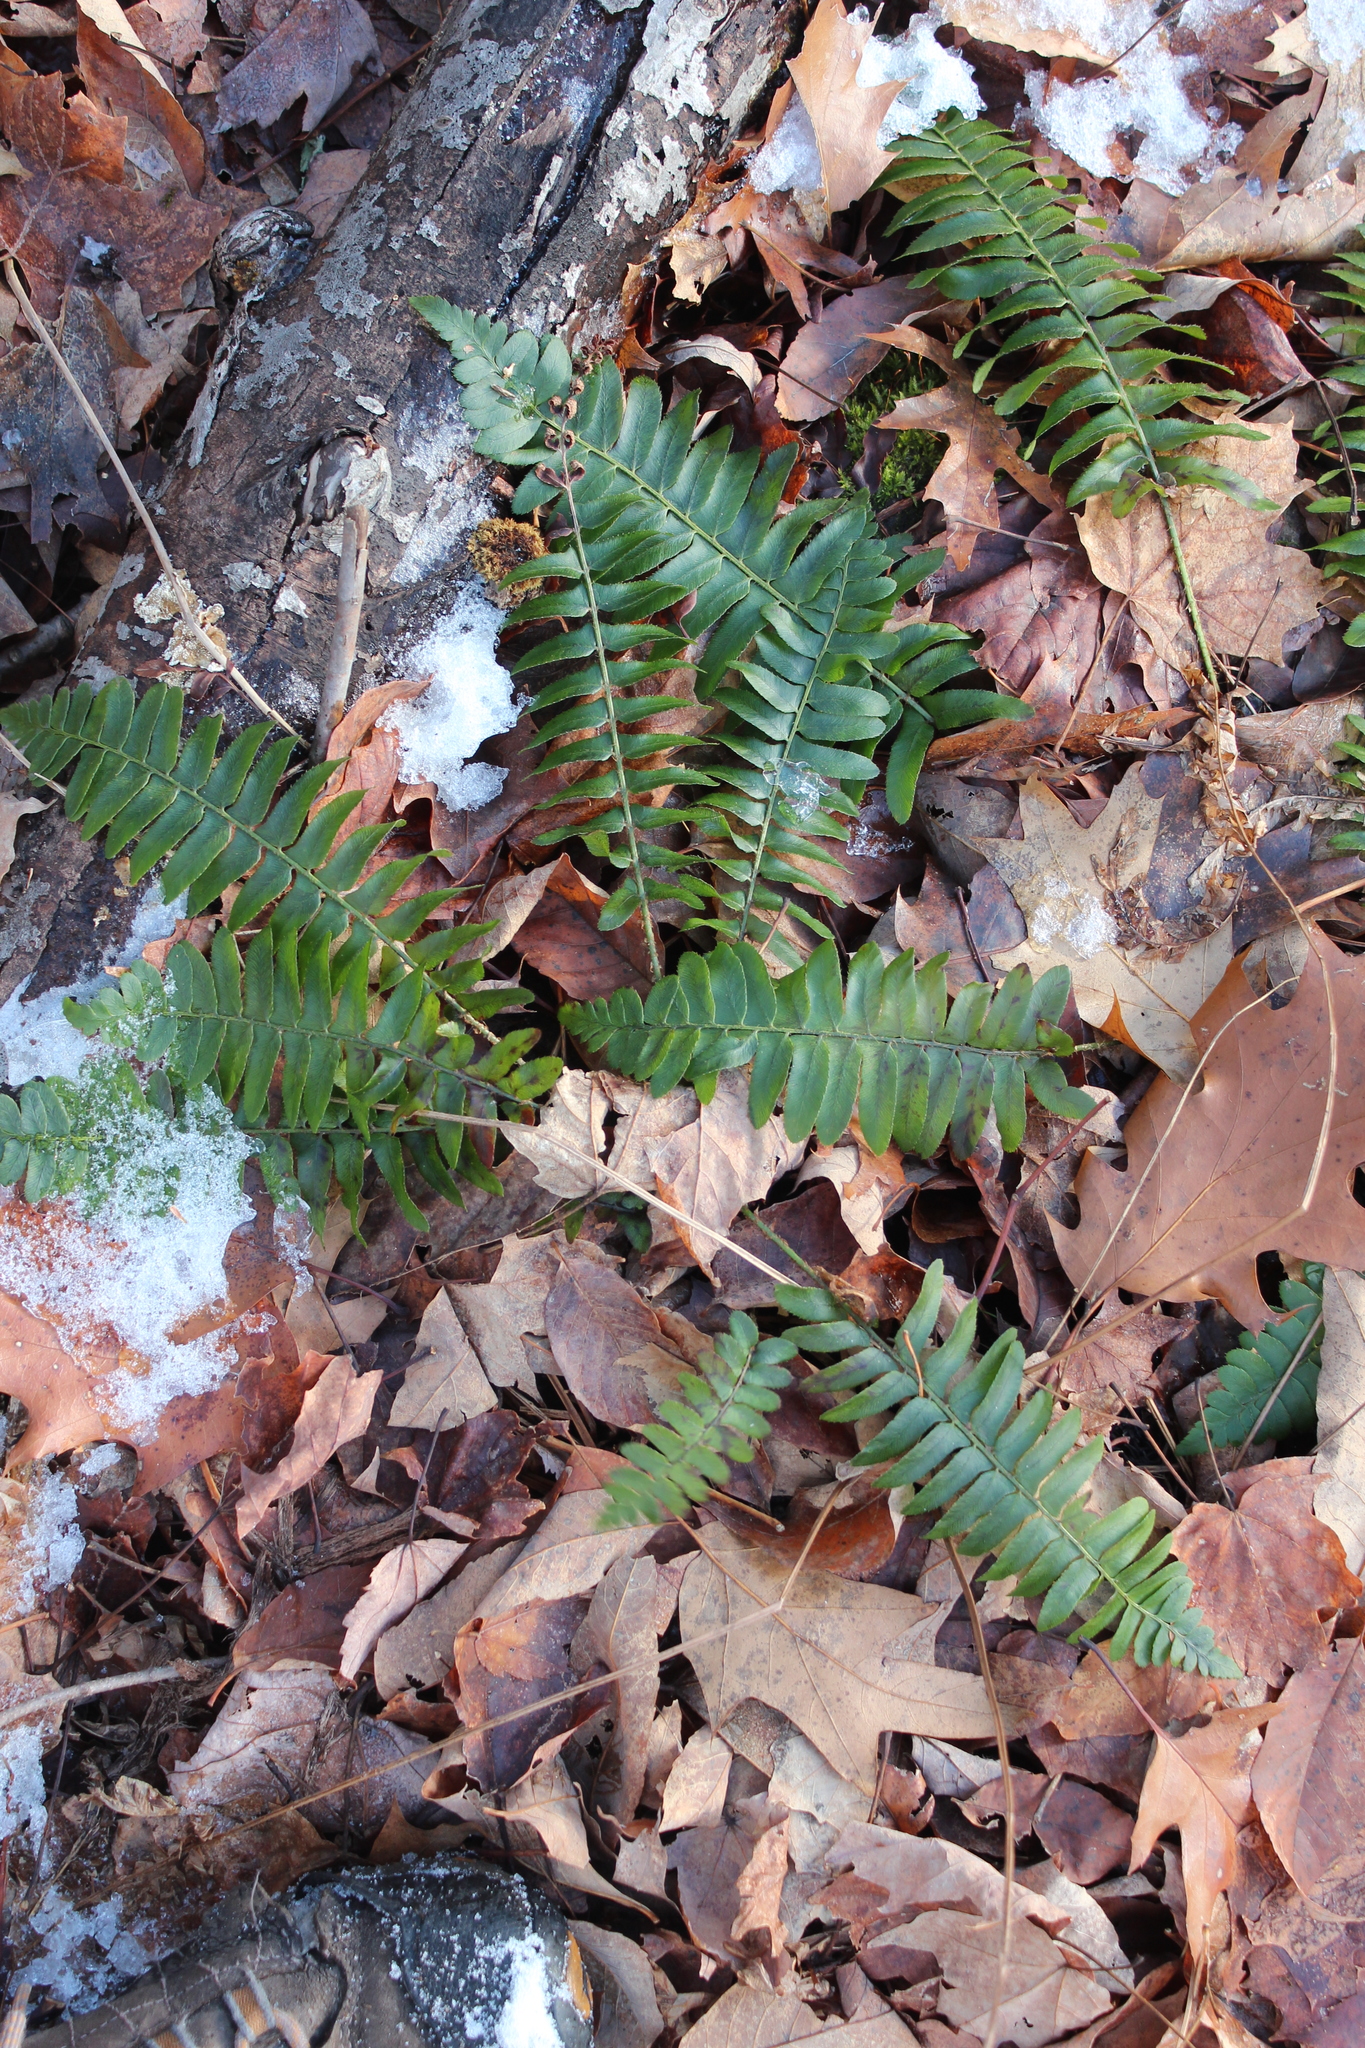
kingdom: Plantae
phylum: Tracheophyta
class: Polypodiopsida
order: Polypodiales
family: Dryopteridaceae
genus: Polystichum
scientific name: Polystichum acrostichoides
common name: Christmas fern
